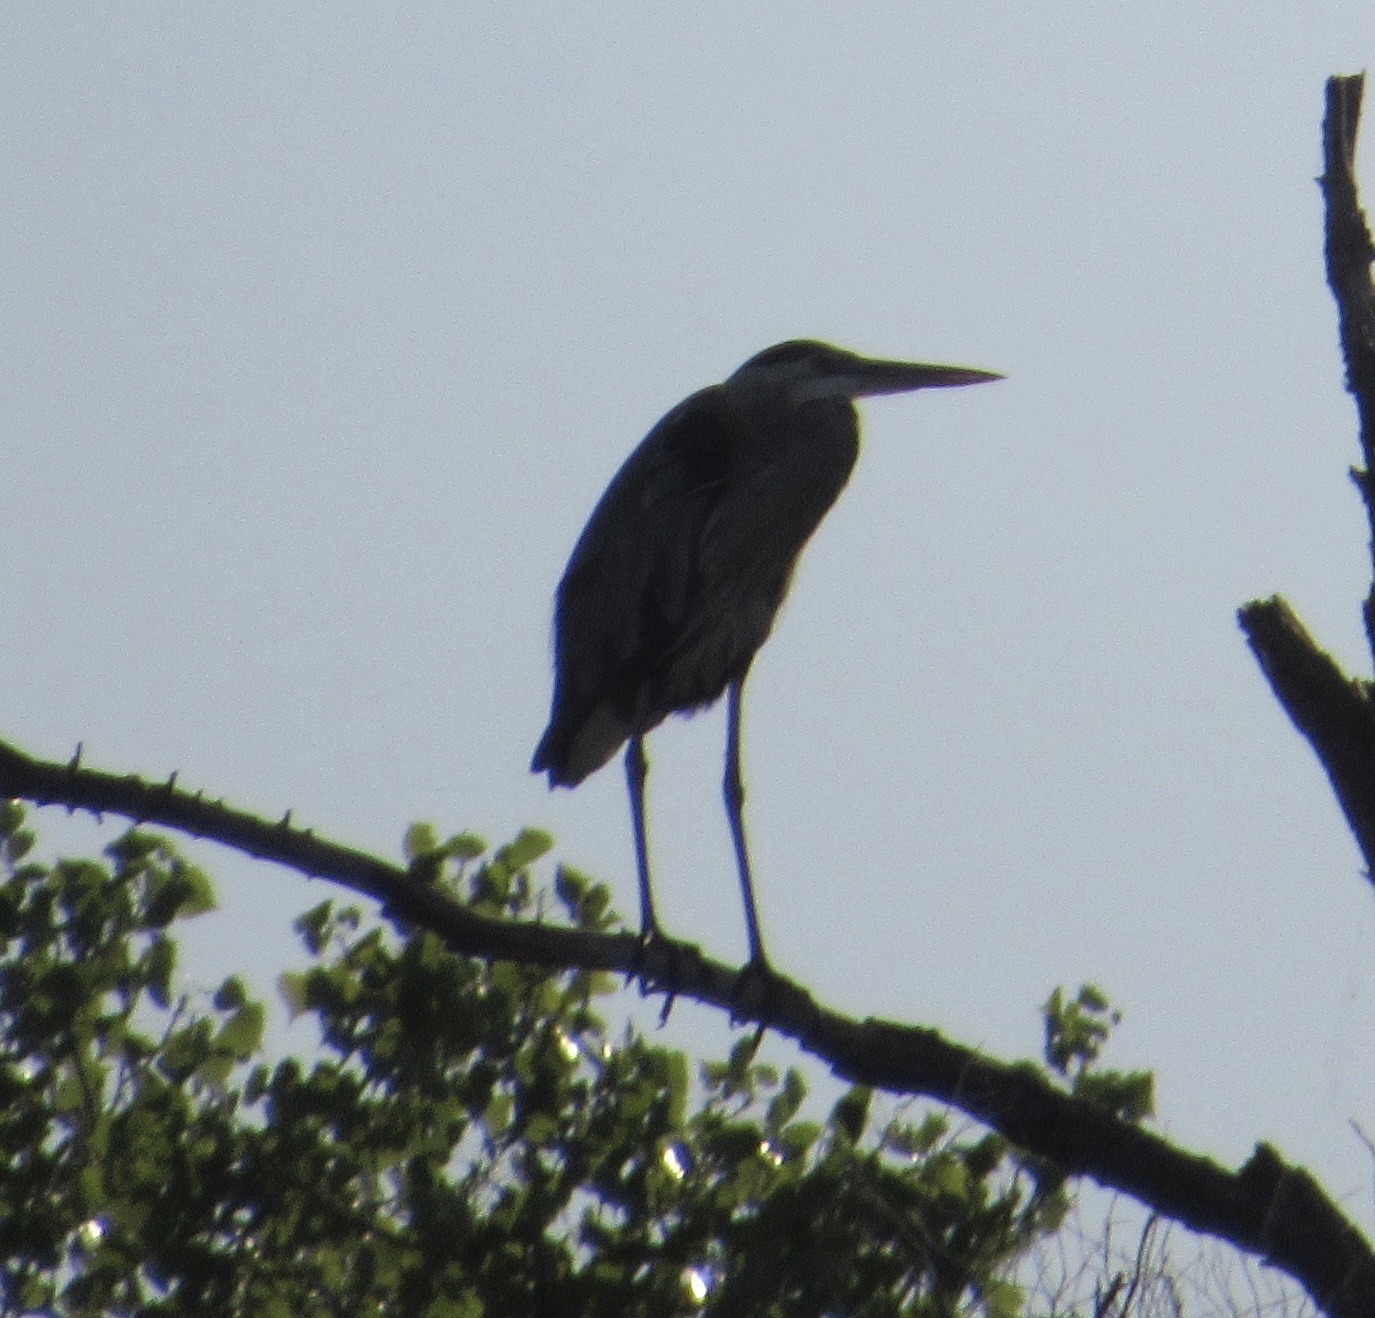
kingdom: Animalia
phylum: Chordata
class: Aves
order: Pelecaniformes
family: Ardeidae
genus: Ardea
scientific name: Ardea herodias
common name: Great blue heron
